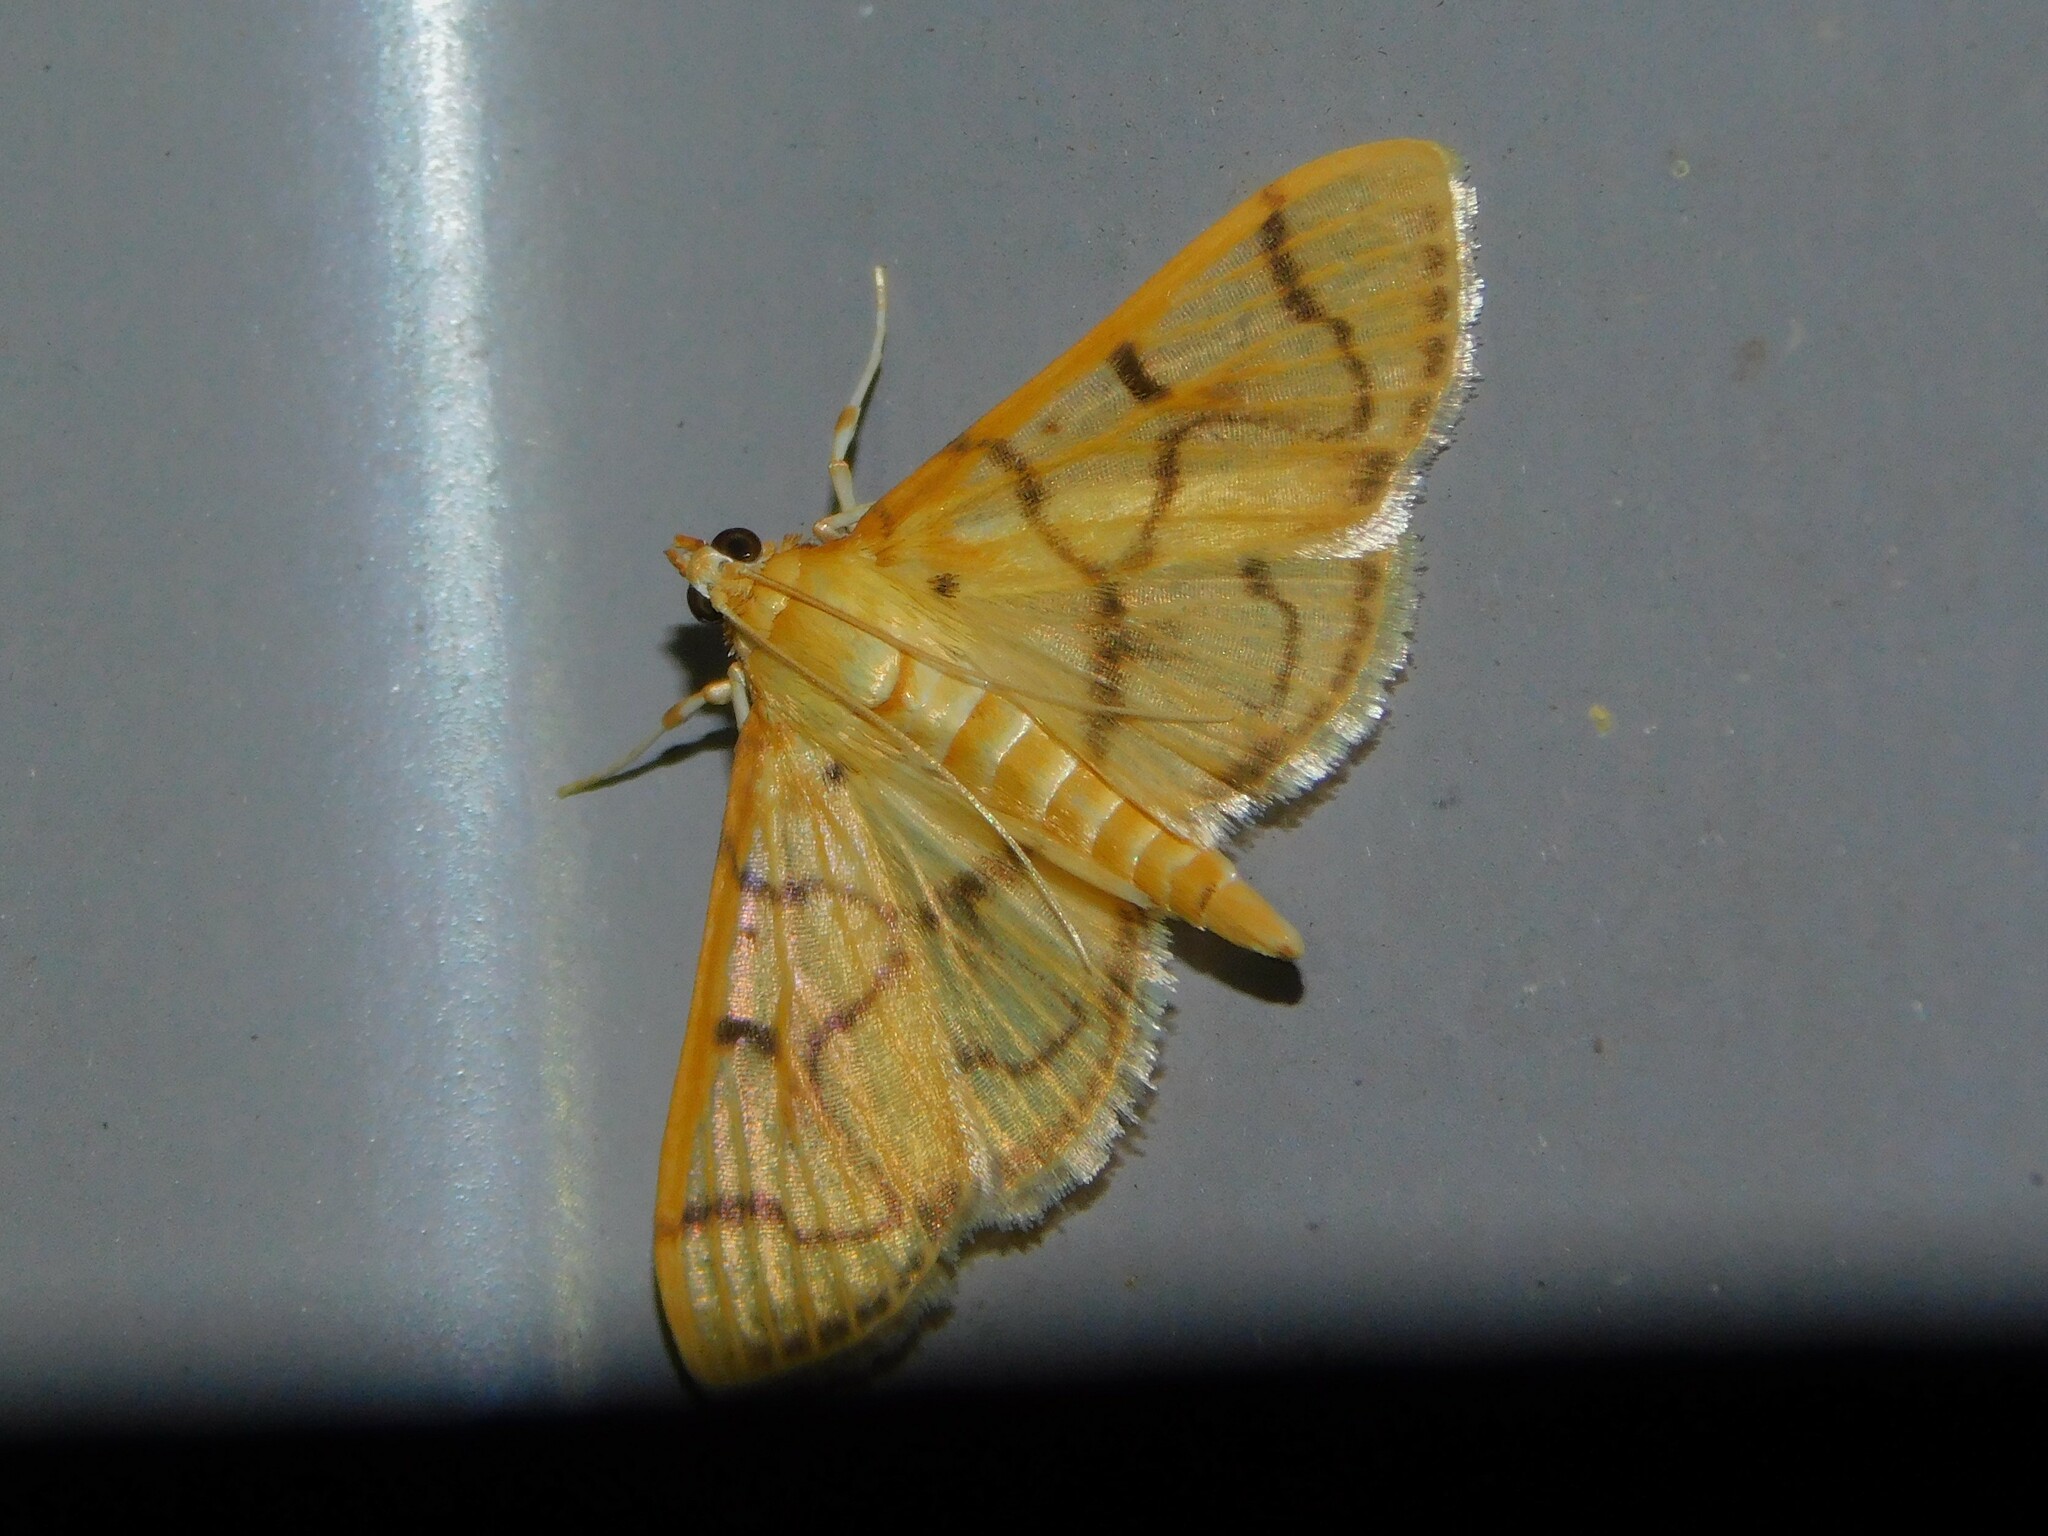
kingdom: Animalia
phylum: Arthropoda
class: Insecta
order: Lepidoptera
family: Crambidae
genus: Syllepte
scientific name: Syllepte retractalis
